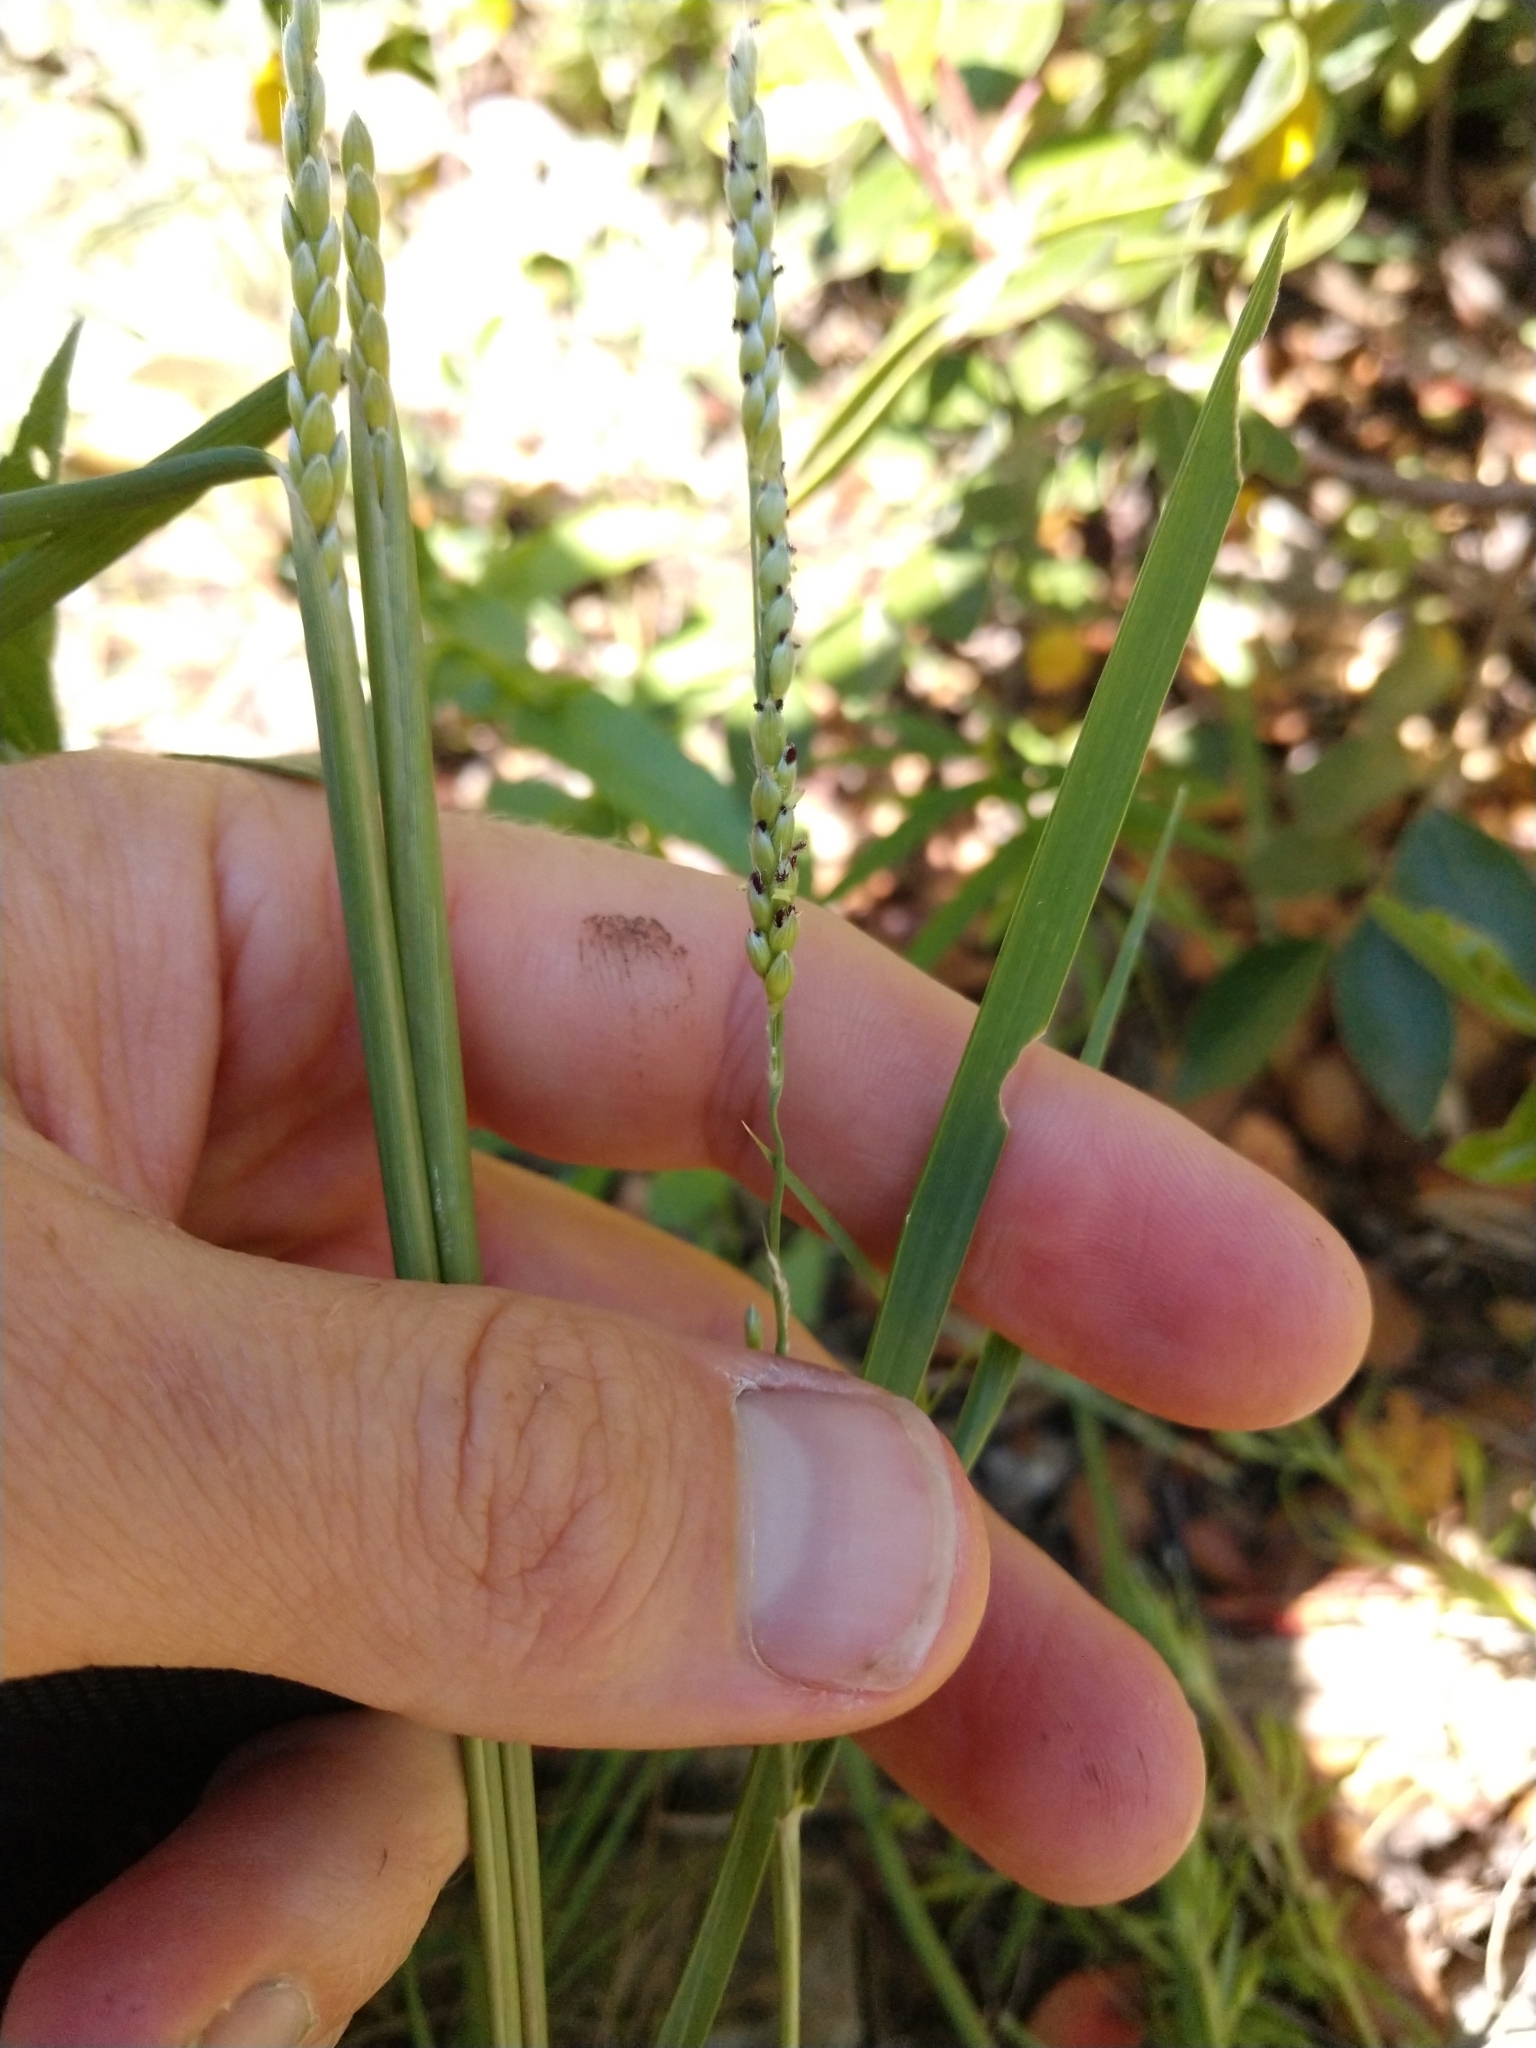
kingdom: Plantae
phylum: Tracheophyta
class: Liliopsida
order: Poales
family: Poaceae
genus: Eriochloa
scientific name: Eriochloa sericea
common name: Texas cup grass
